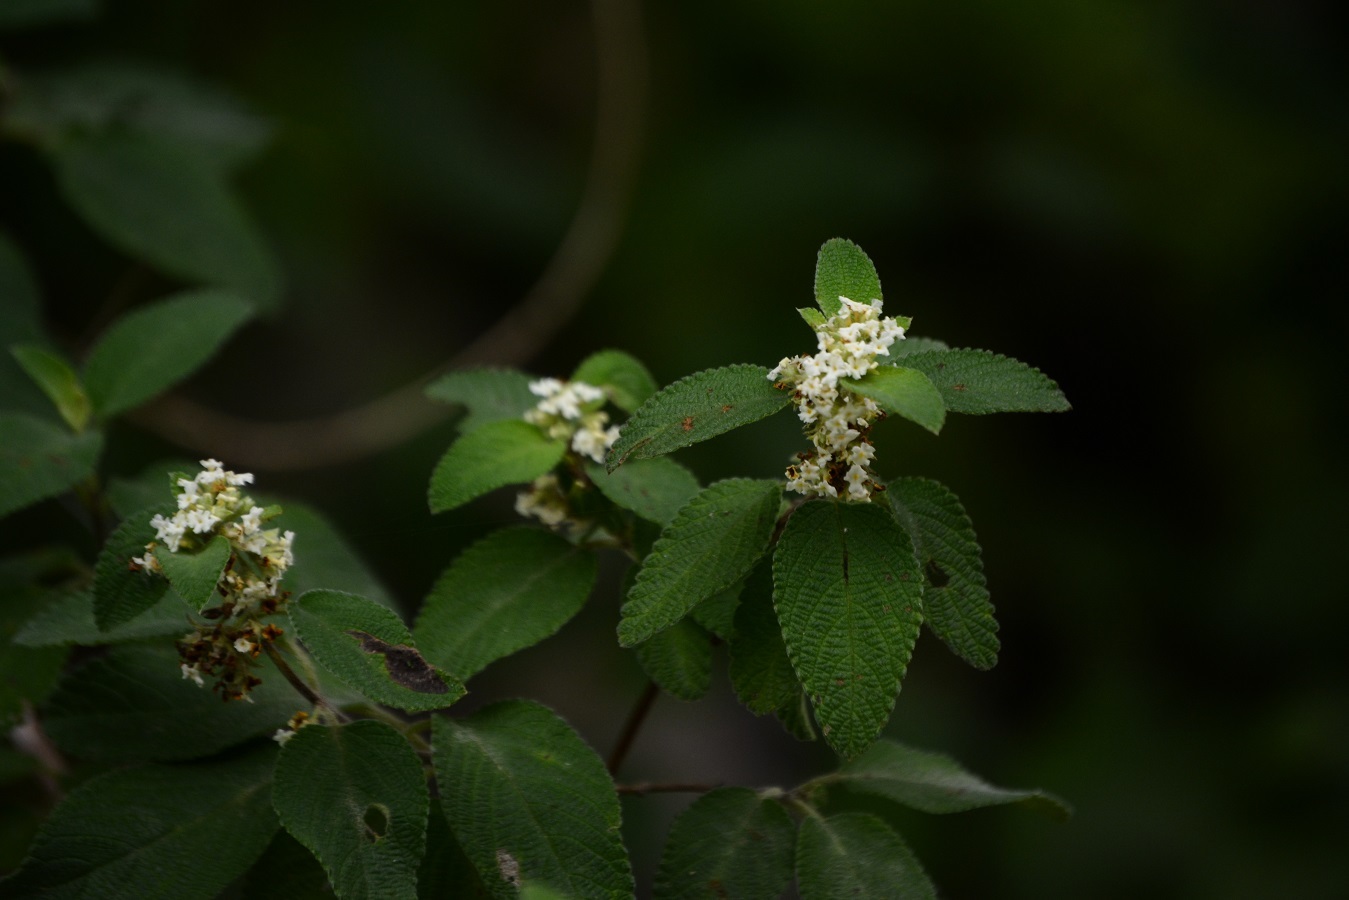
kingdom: Plantae
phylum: Tracheophyta
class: Magnoliopsida
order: Lamiales
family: Verbenaceae
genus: Lantana
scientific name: Lantana involucrata
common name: Black sage
